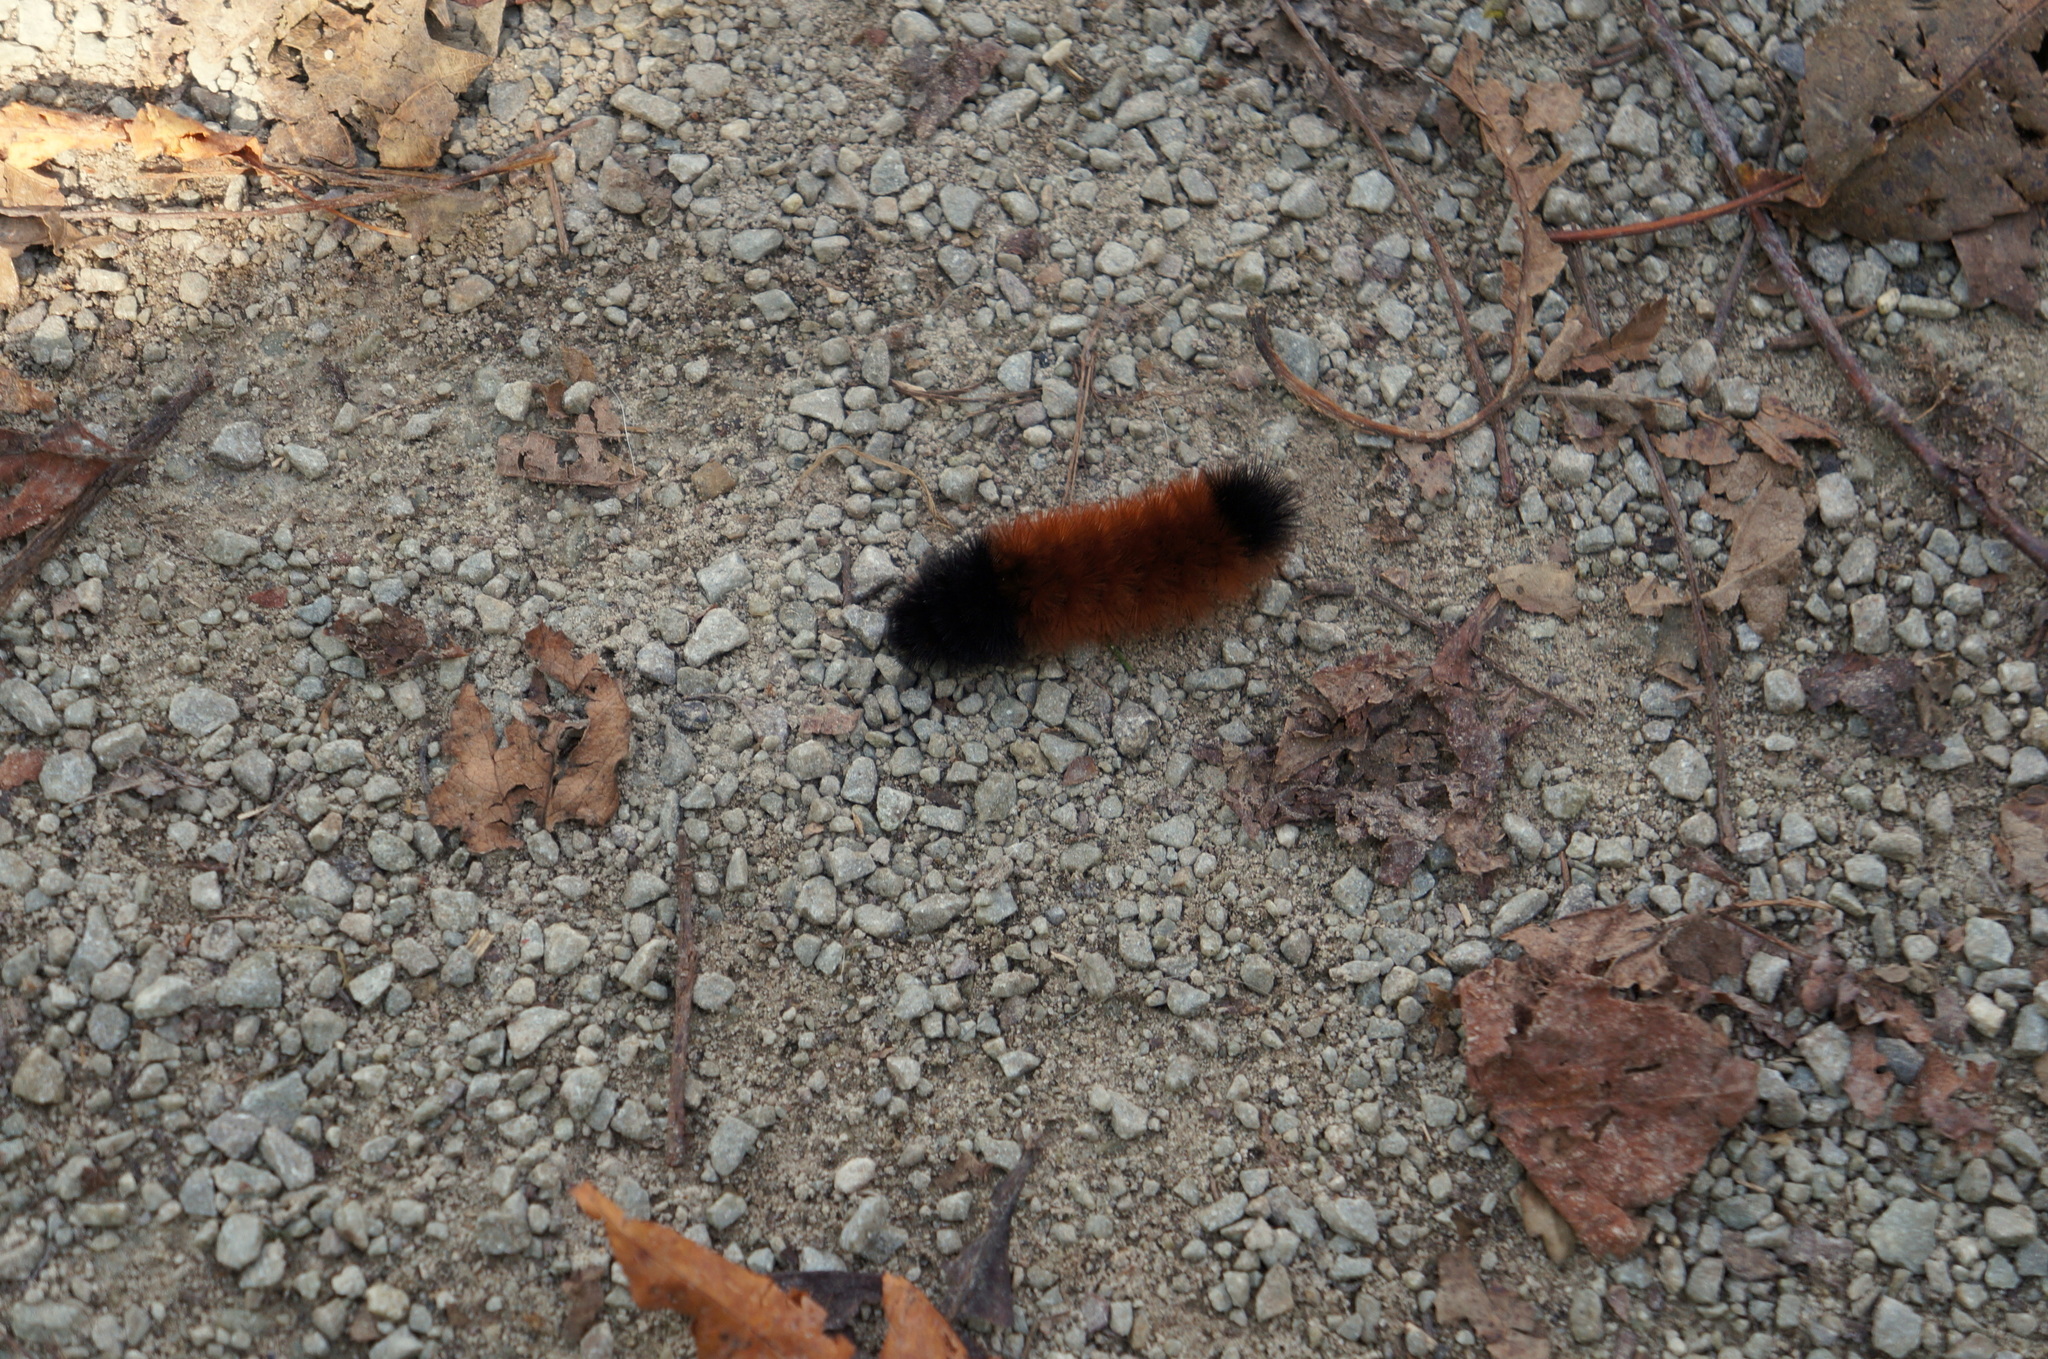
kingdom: Animalia
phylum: Arthropoda
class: Insecta
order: Lepidoptera
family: Erebidae
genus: Pyrrharctia
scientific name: Pyrrharctia isabella
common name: Isabella tiger moth
